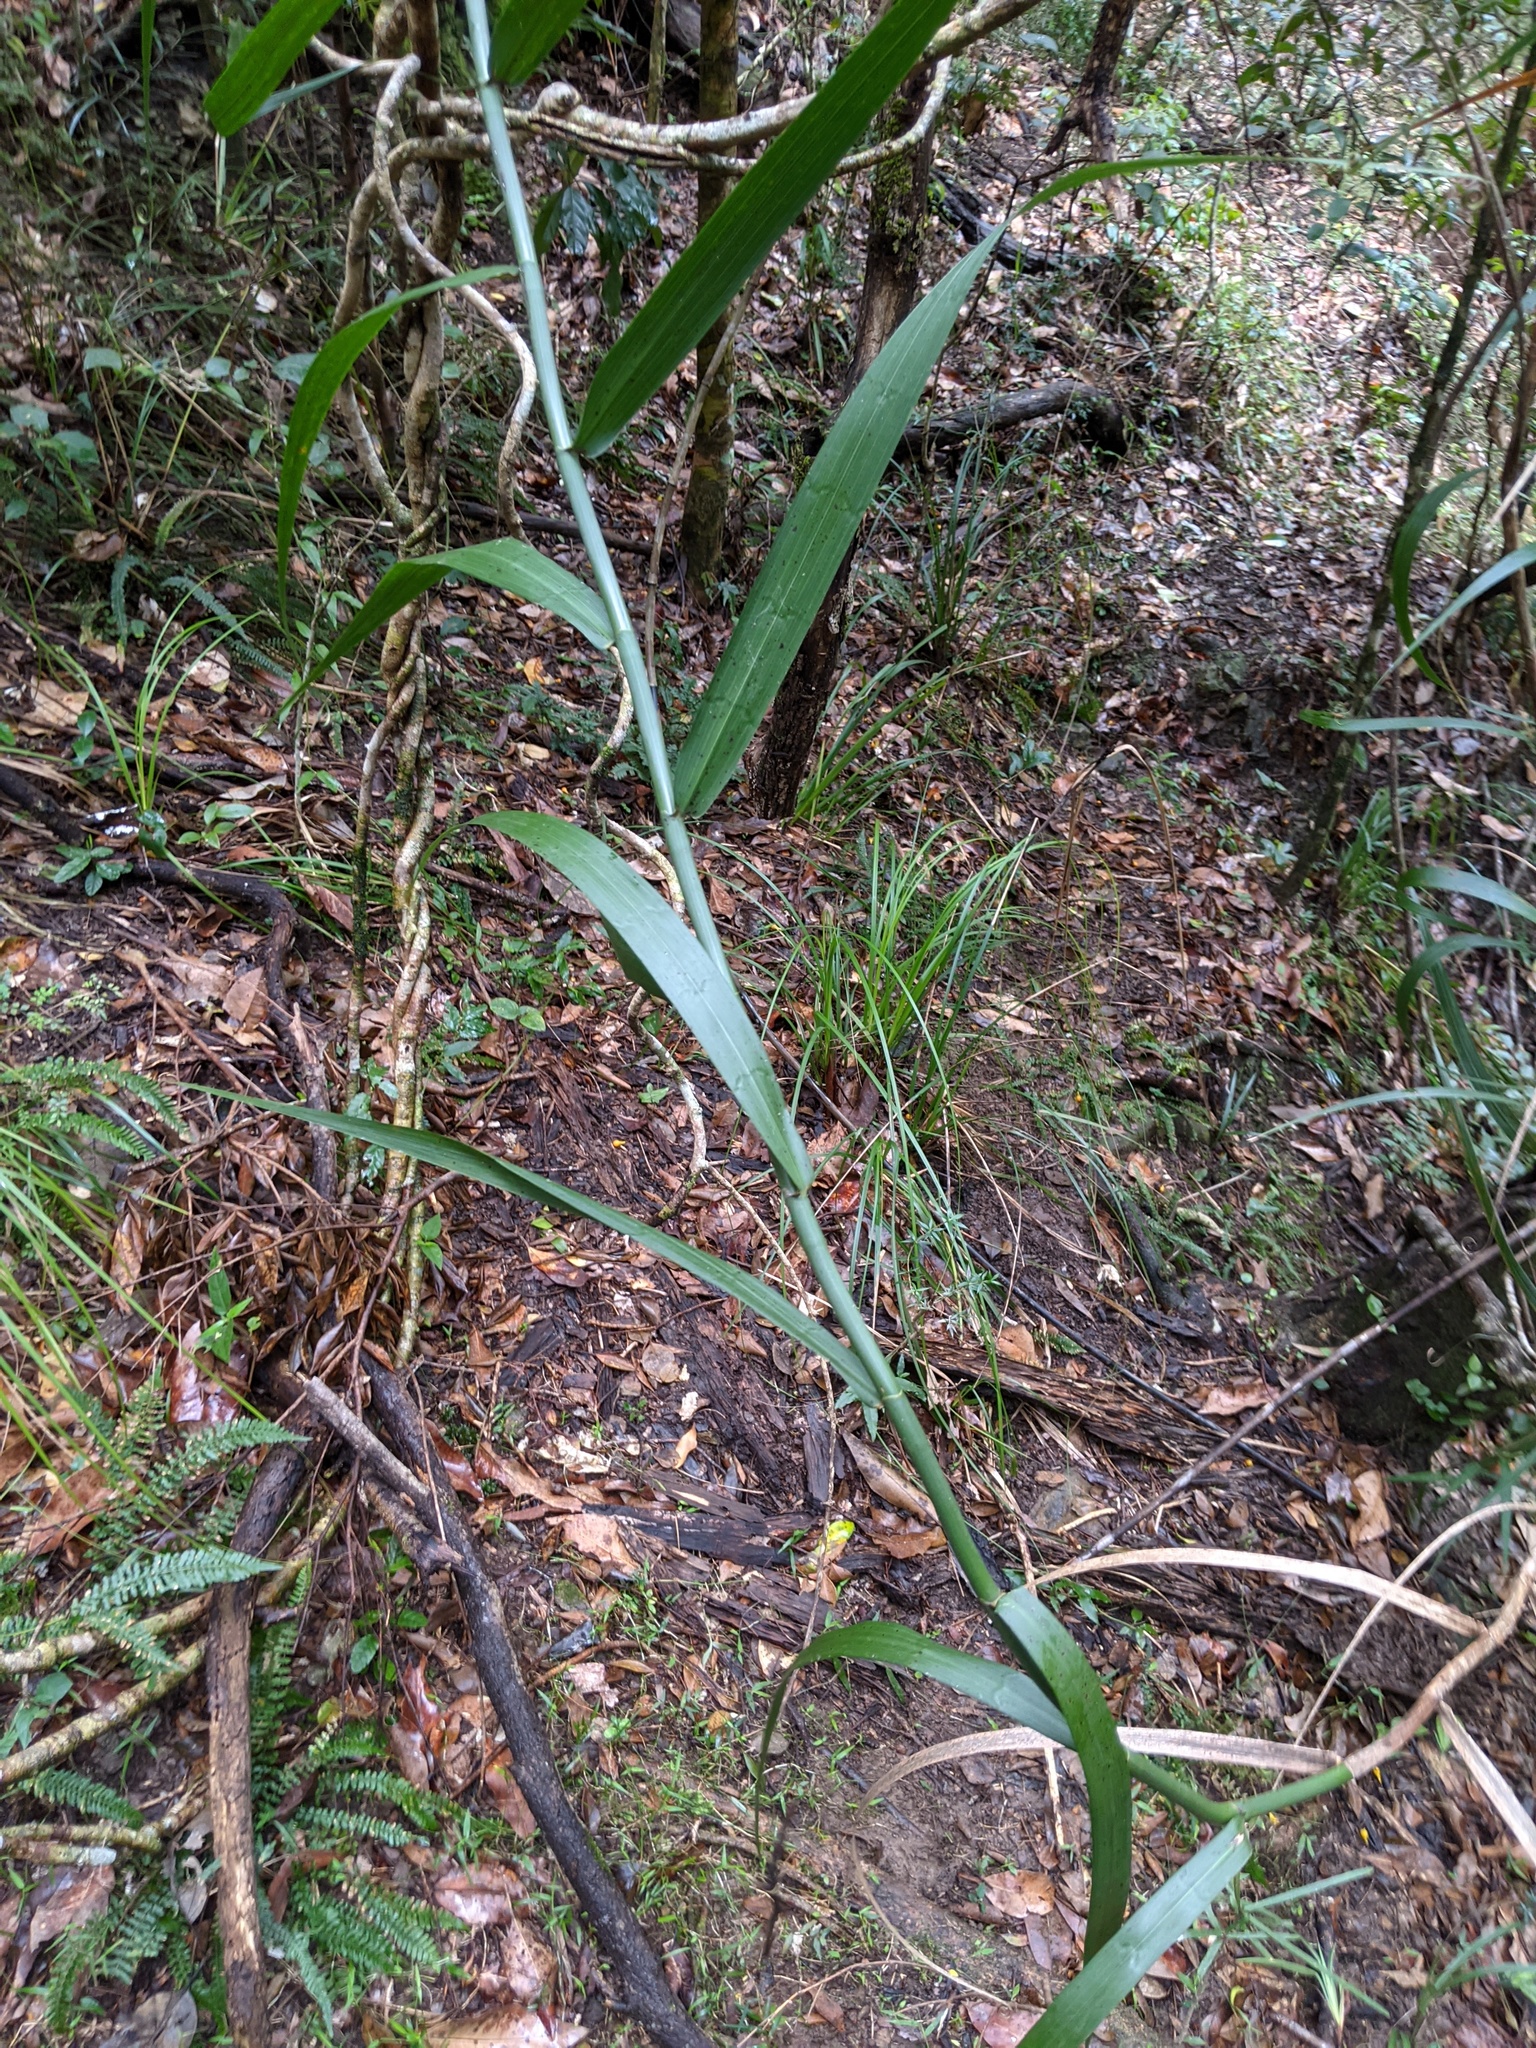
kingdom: Plantae
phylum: Tracheophyta
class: Liliopsida
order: Poales
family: Flagellariaceae
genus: Flagellaria
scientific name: Flagellaria indica
